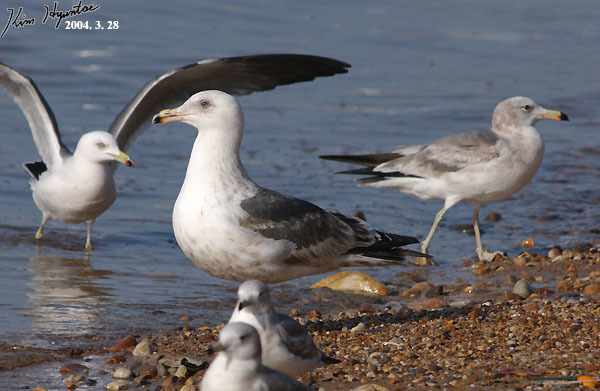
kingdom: Animalia
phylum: Chordata
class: Aves
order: Charadriiformes
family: Laridae
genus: Larus
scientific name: Larus schistisagus
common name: Slaty-backed gull
